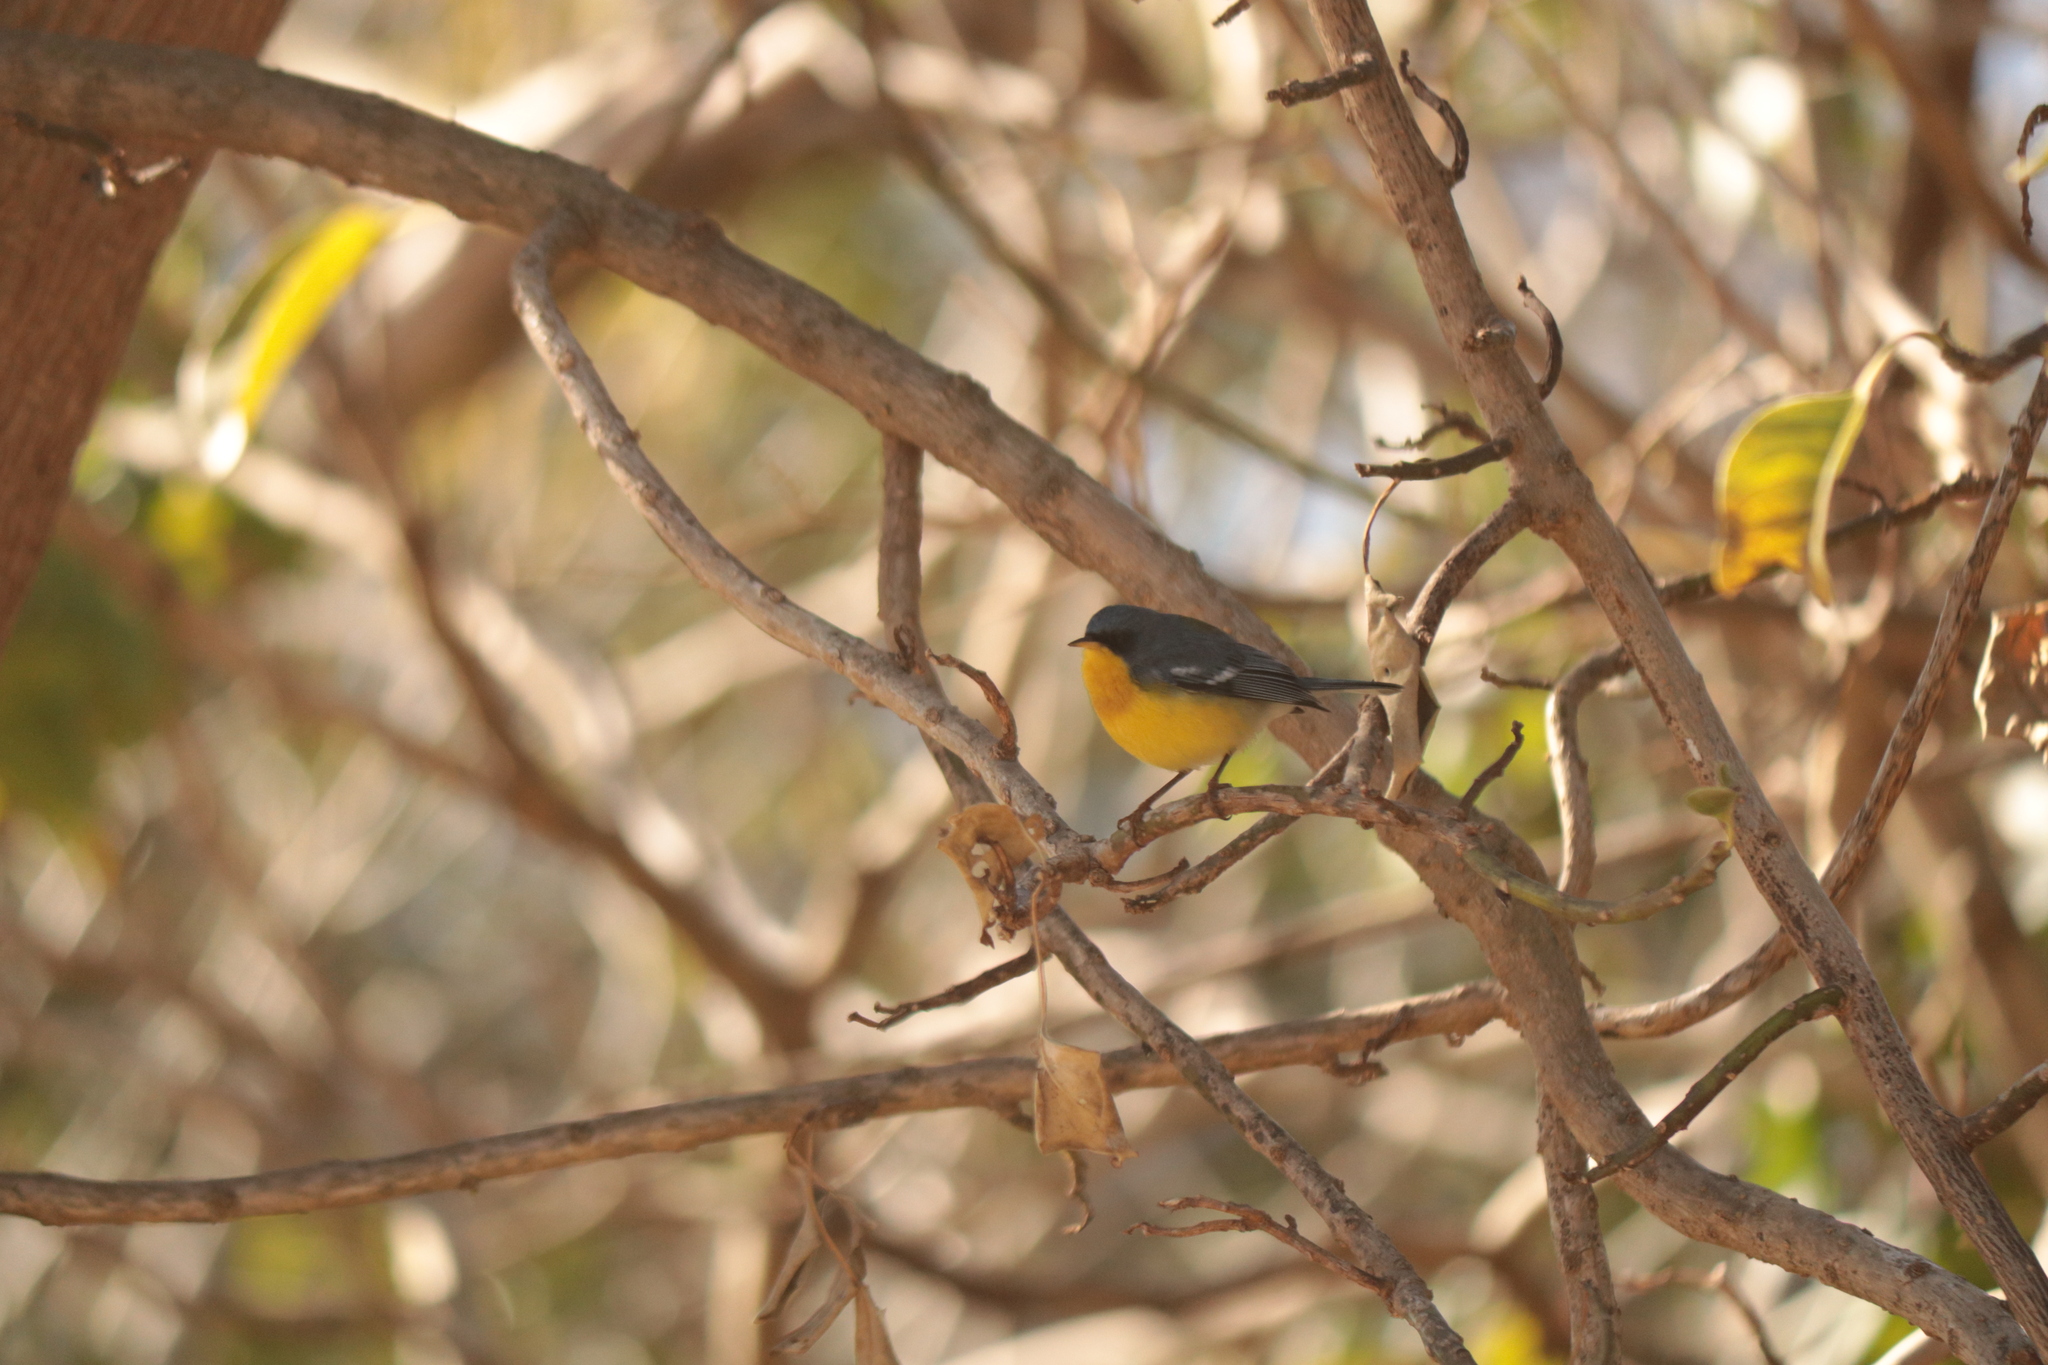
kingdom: Animalia
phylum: Chordata
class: Aves
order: Passeriformes
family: Parulidae
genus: Setophaga
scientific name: Setophaga pitiayumi
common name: Tropical parula
